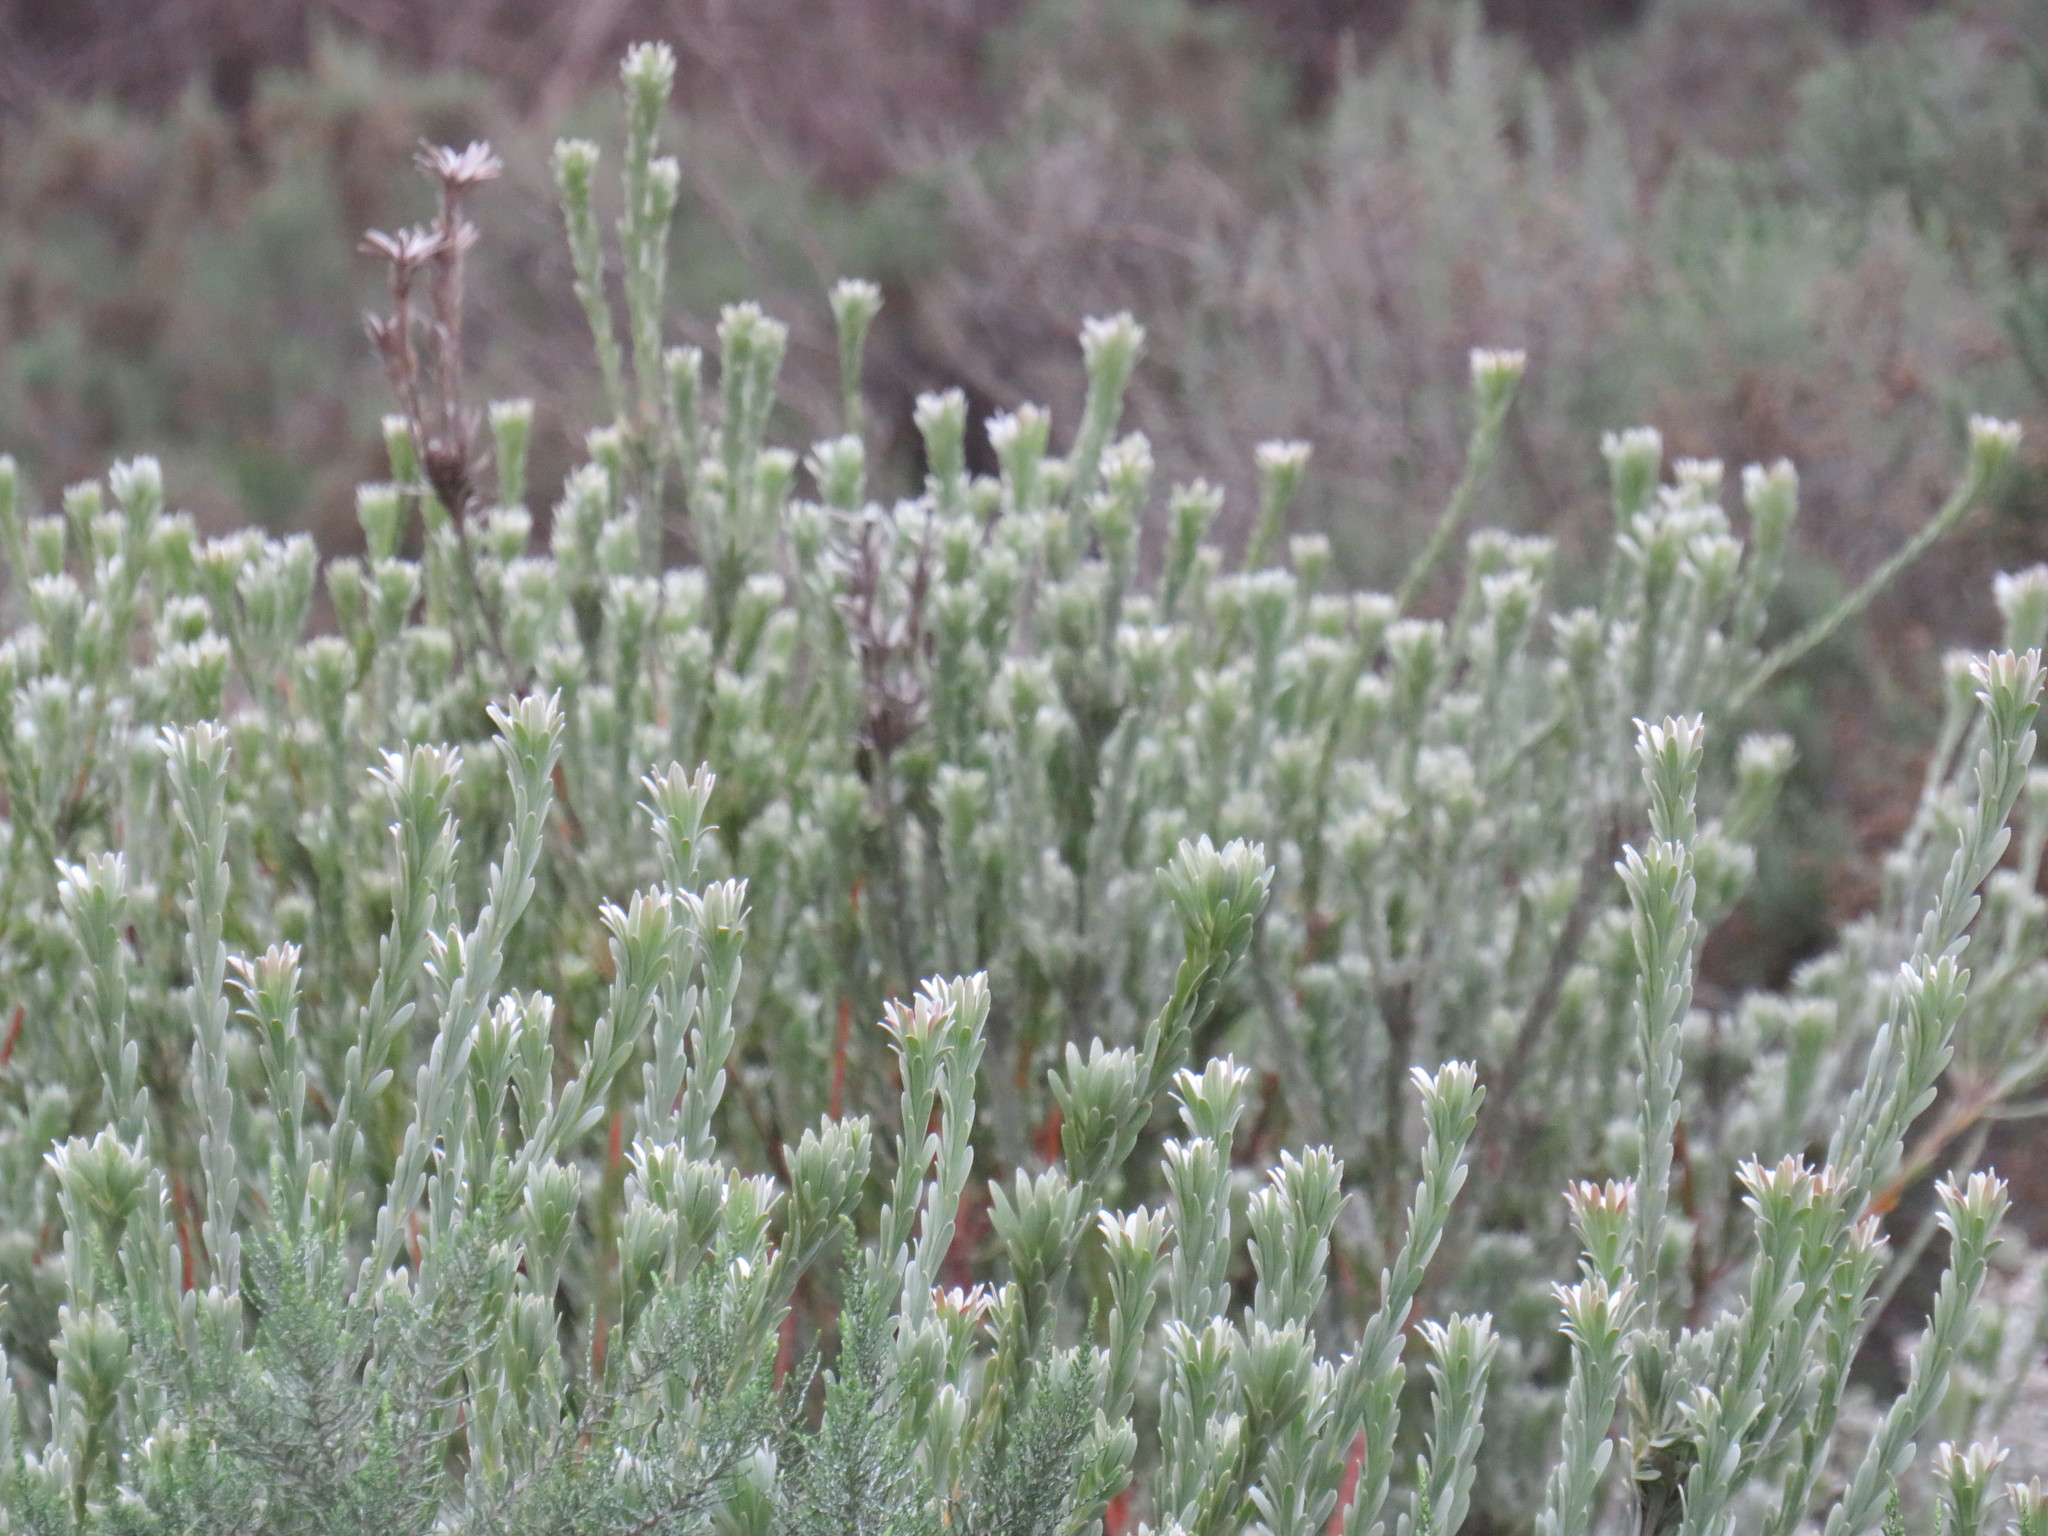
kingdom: Plantae
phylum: Tracheophyta
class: Magnoliopsida
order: Proteales
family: Proteaceae
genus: Leucadendron
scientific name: Leucadendron verticillatum
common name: Klapmuts conebush
